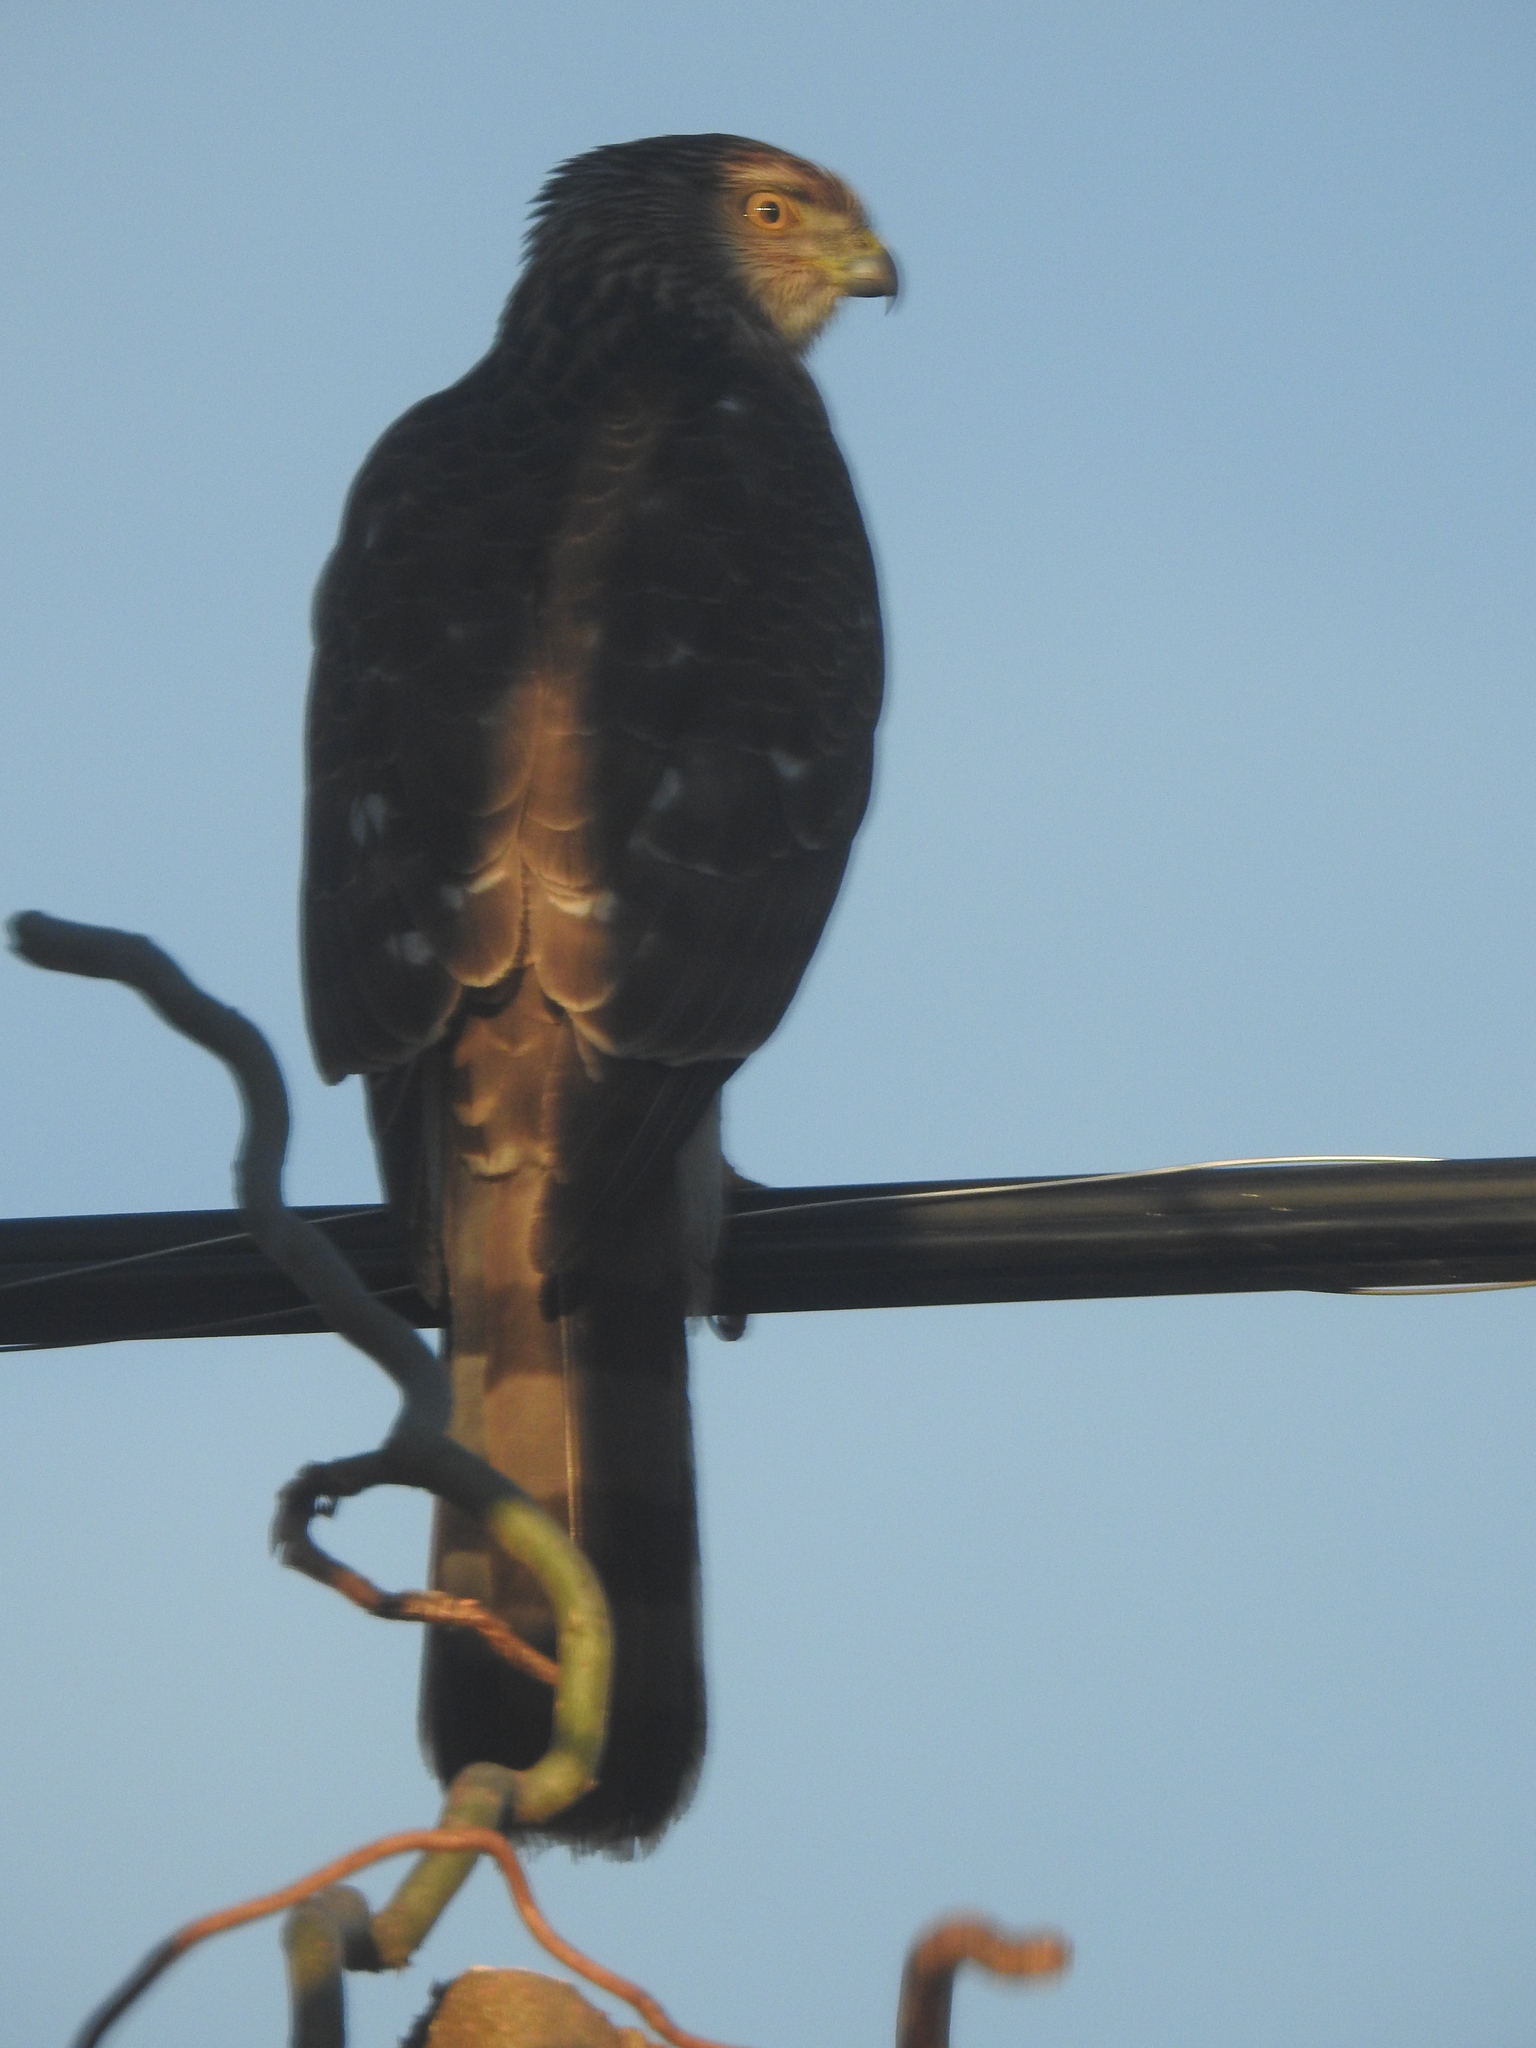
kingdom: Animalia
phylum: Chordata
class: Aves
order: Accipitriformes
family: Accipitridae
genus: Accipiter
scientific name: Accipiter cooperii
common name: Cooper's hawk
